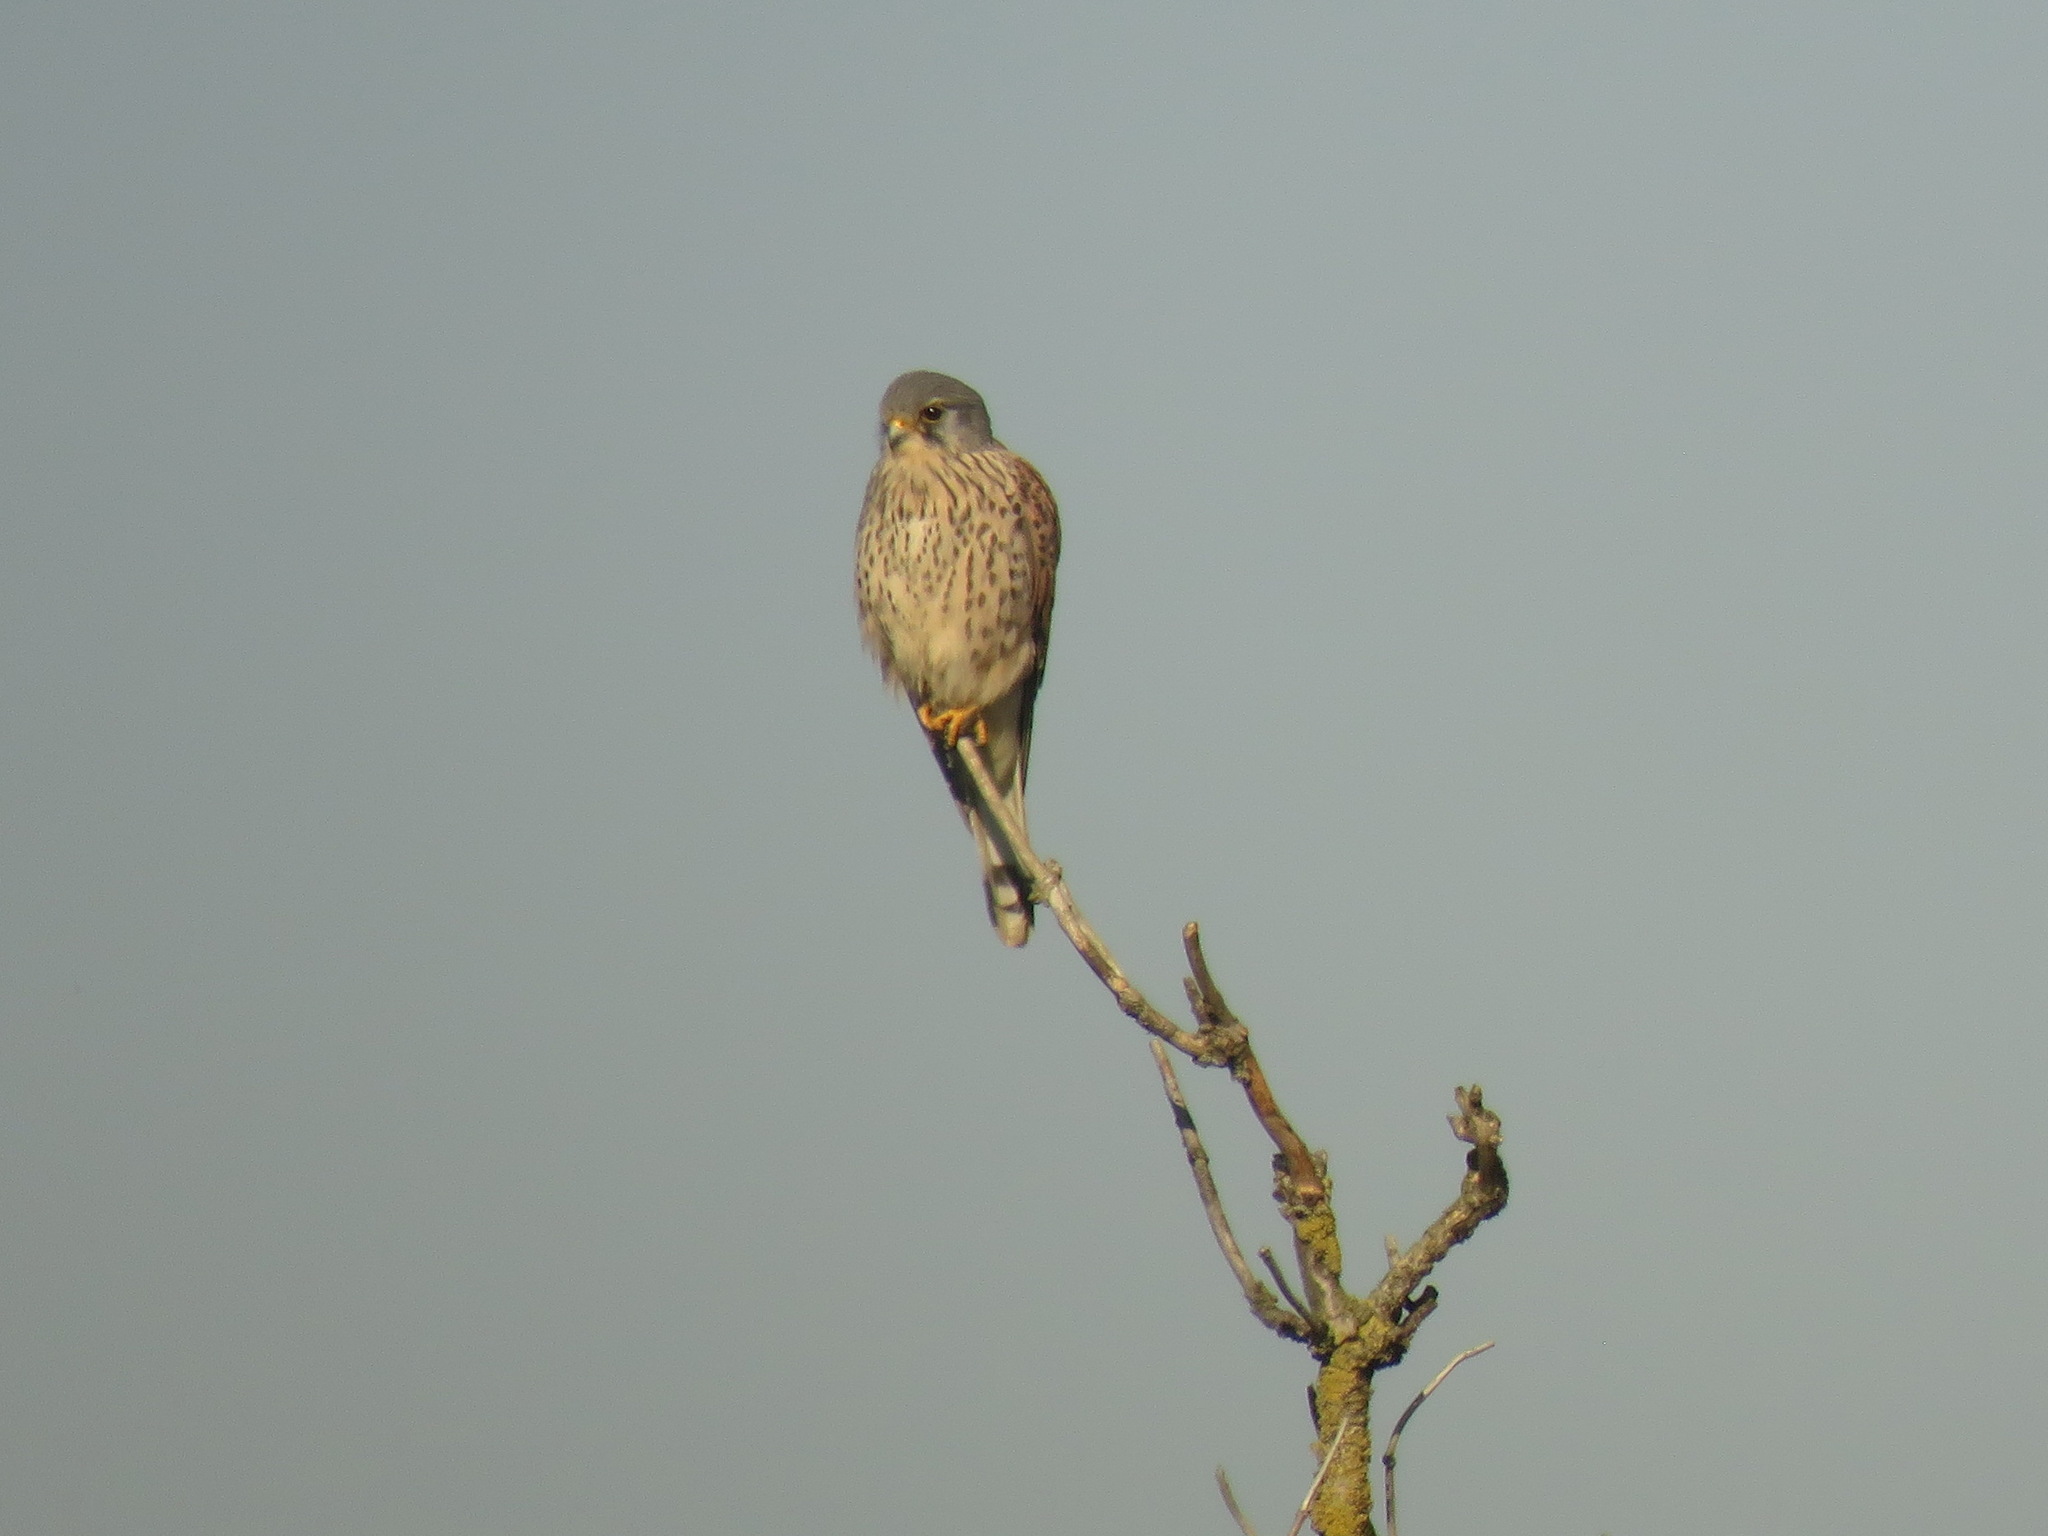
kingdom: Animalia
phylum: Chordata
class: Aves
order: Falconiformes
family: Falconidae
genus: Falco
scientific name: Falco tinnunculus
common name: Common kestrel
